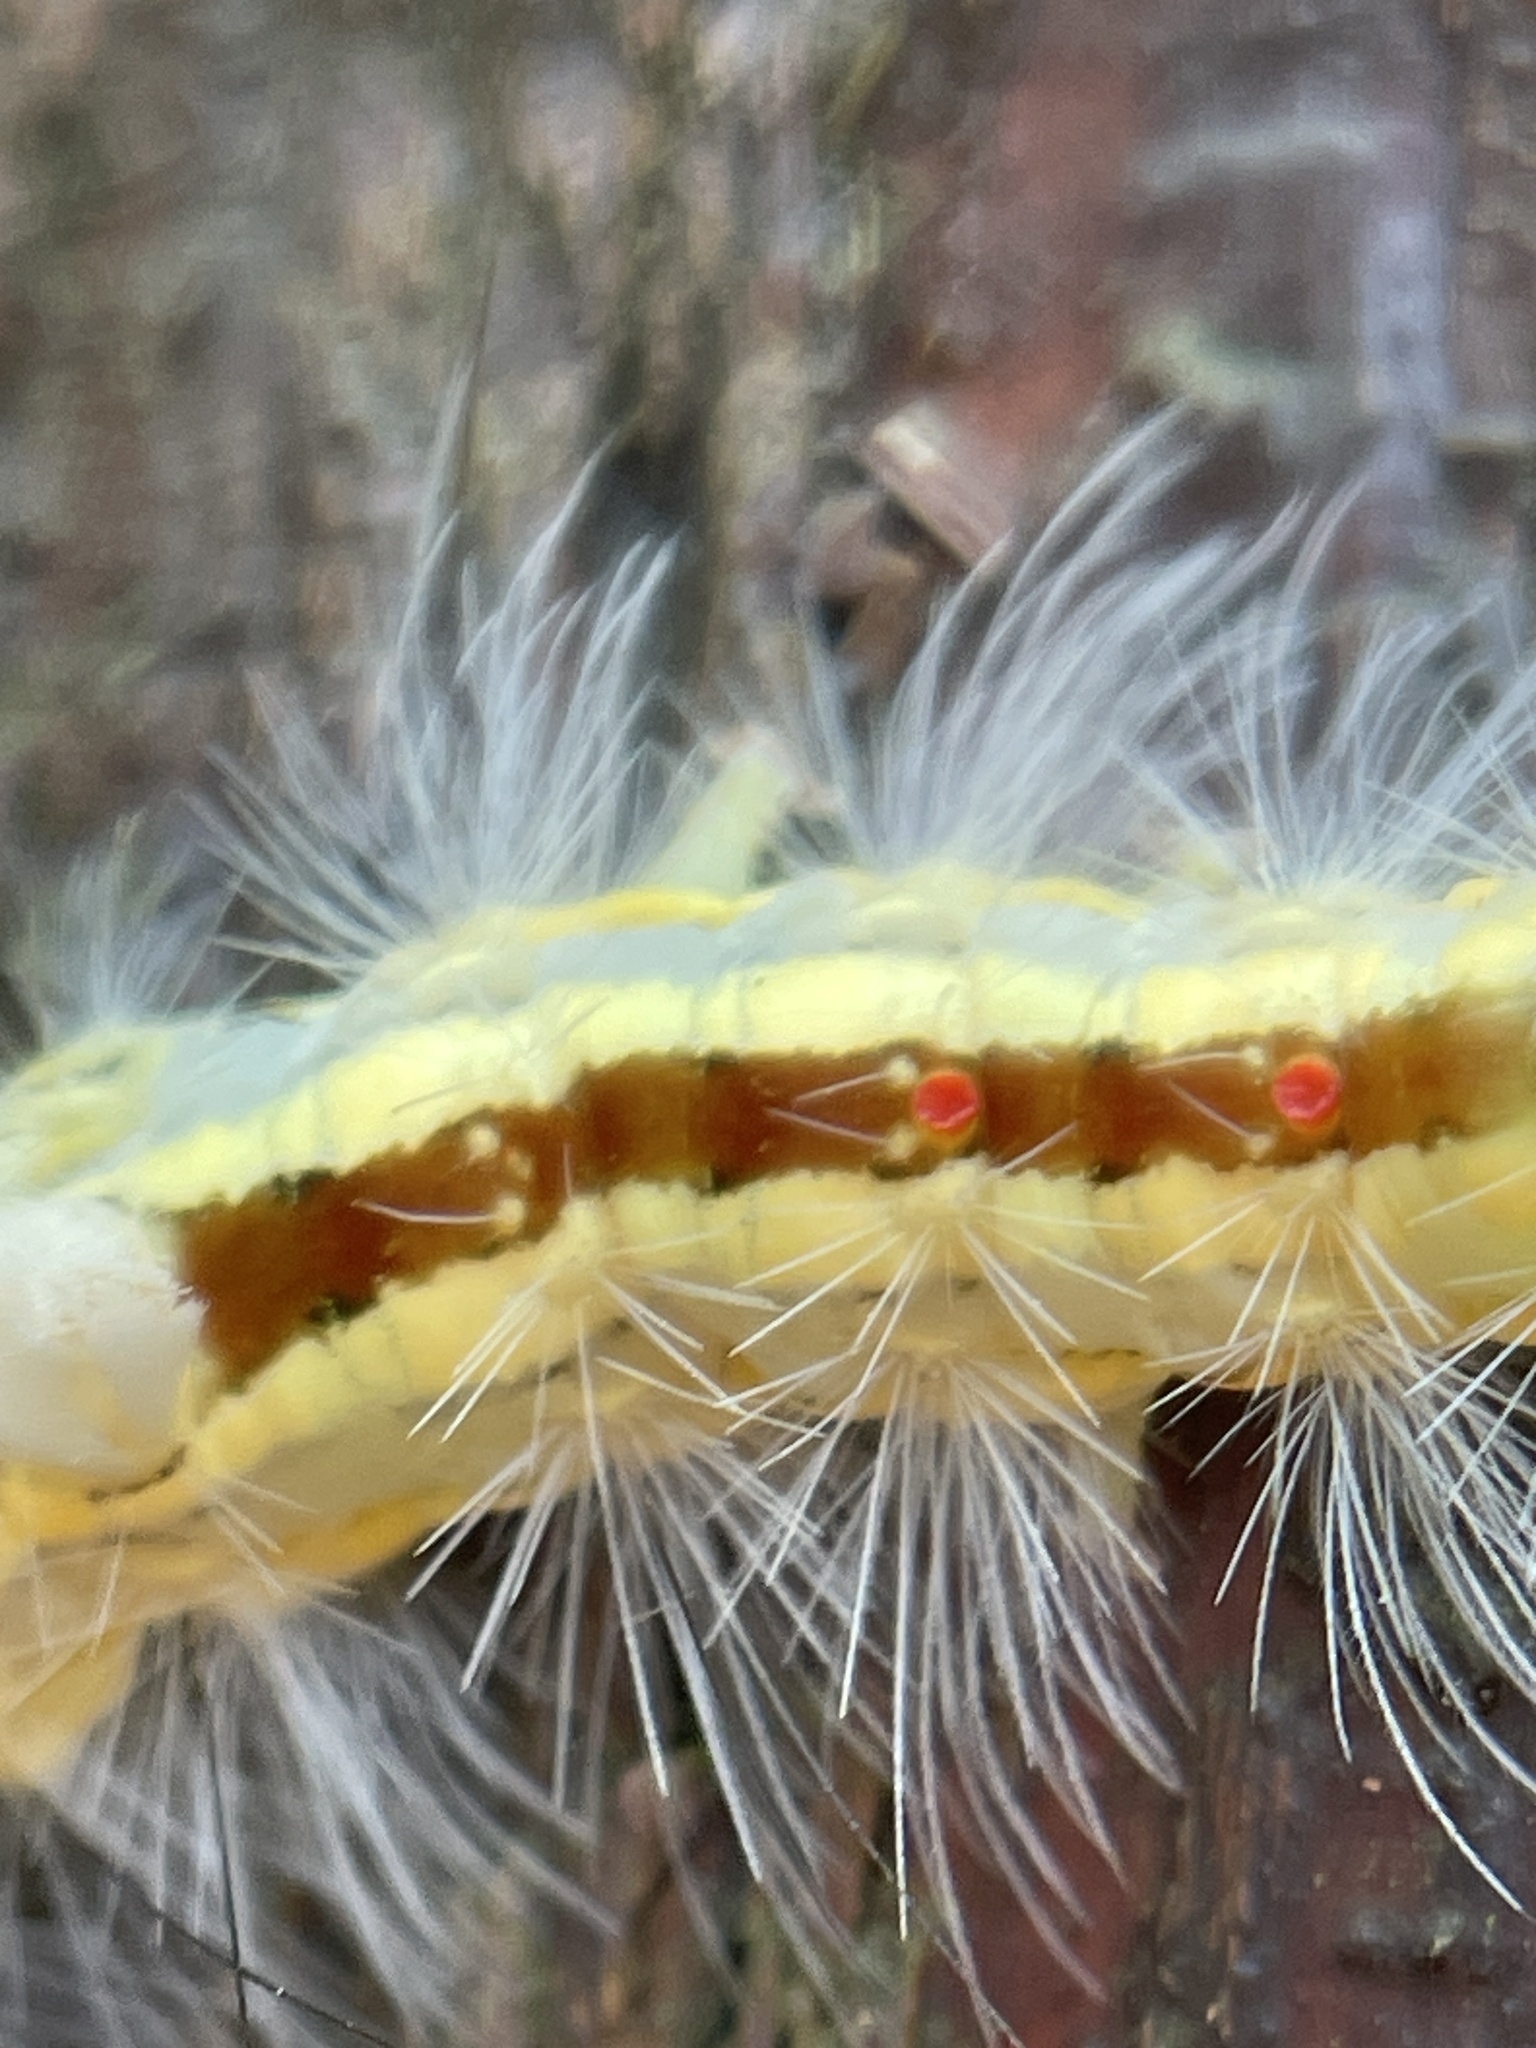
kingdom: Animalia
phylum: Arthropoda
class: Insecta
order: Lepidoptera
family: Erebidae
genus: Orgyia
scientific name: Orgyia leucostigma
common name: White-marked tussock moth
